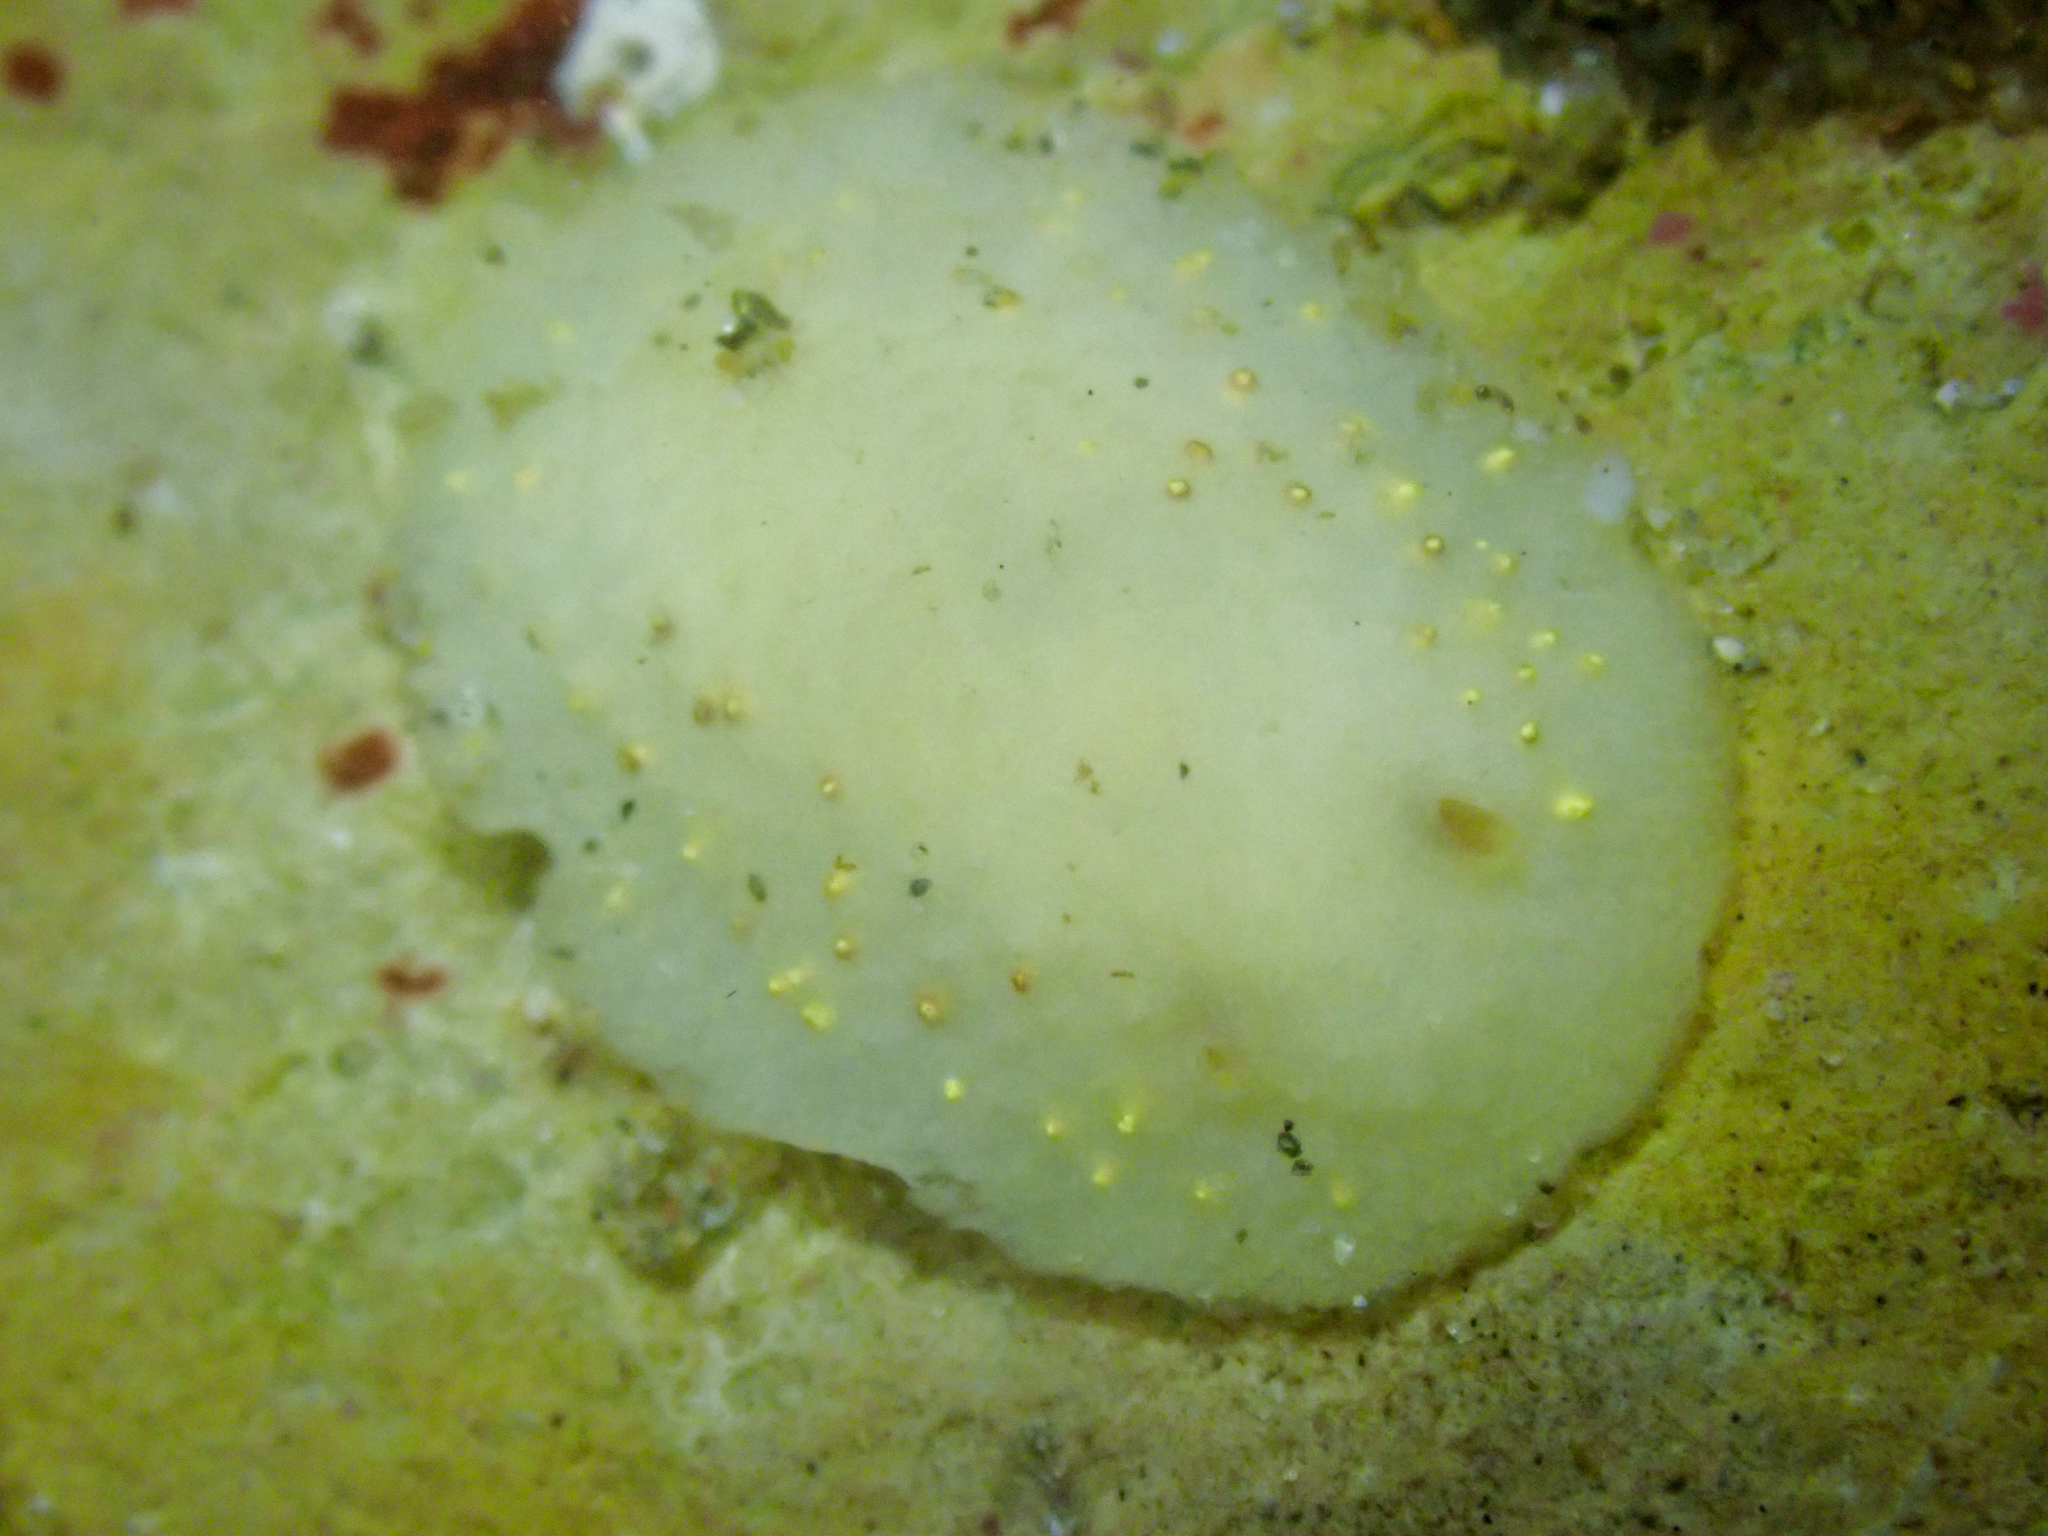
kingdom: Animalia
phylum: Mollusca
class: Gastropoda
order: Nudibranchia
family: Cadlinidae
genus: Cadlina
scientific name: Cadlina sparsa
